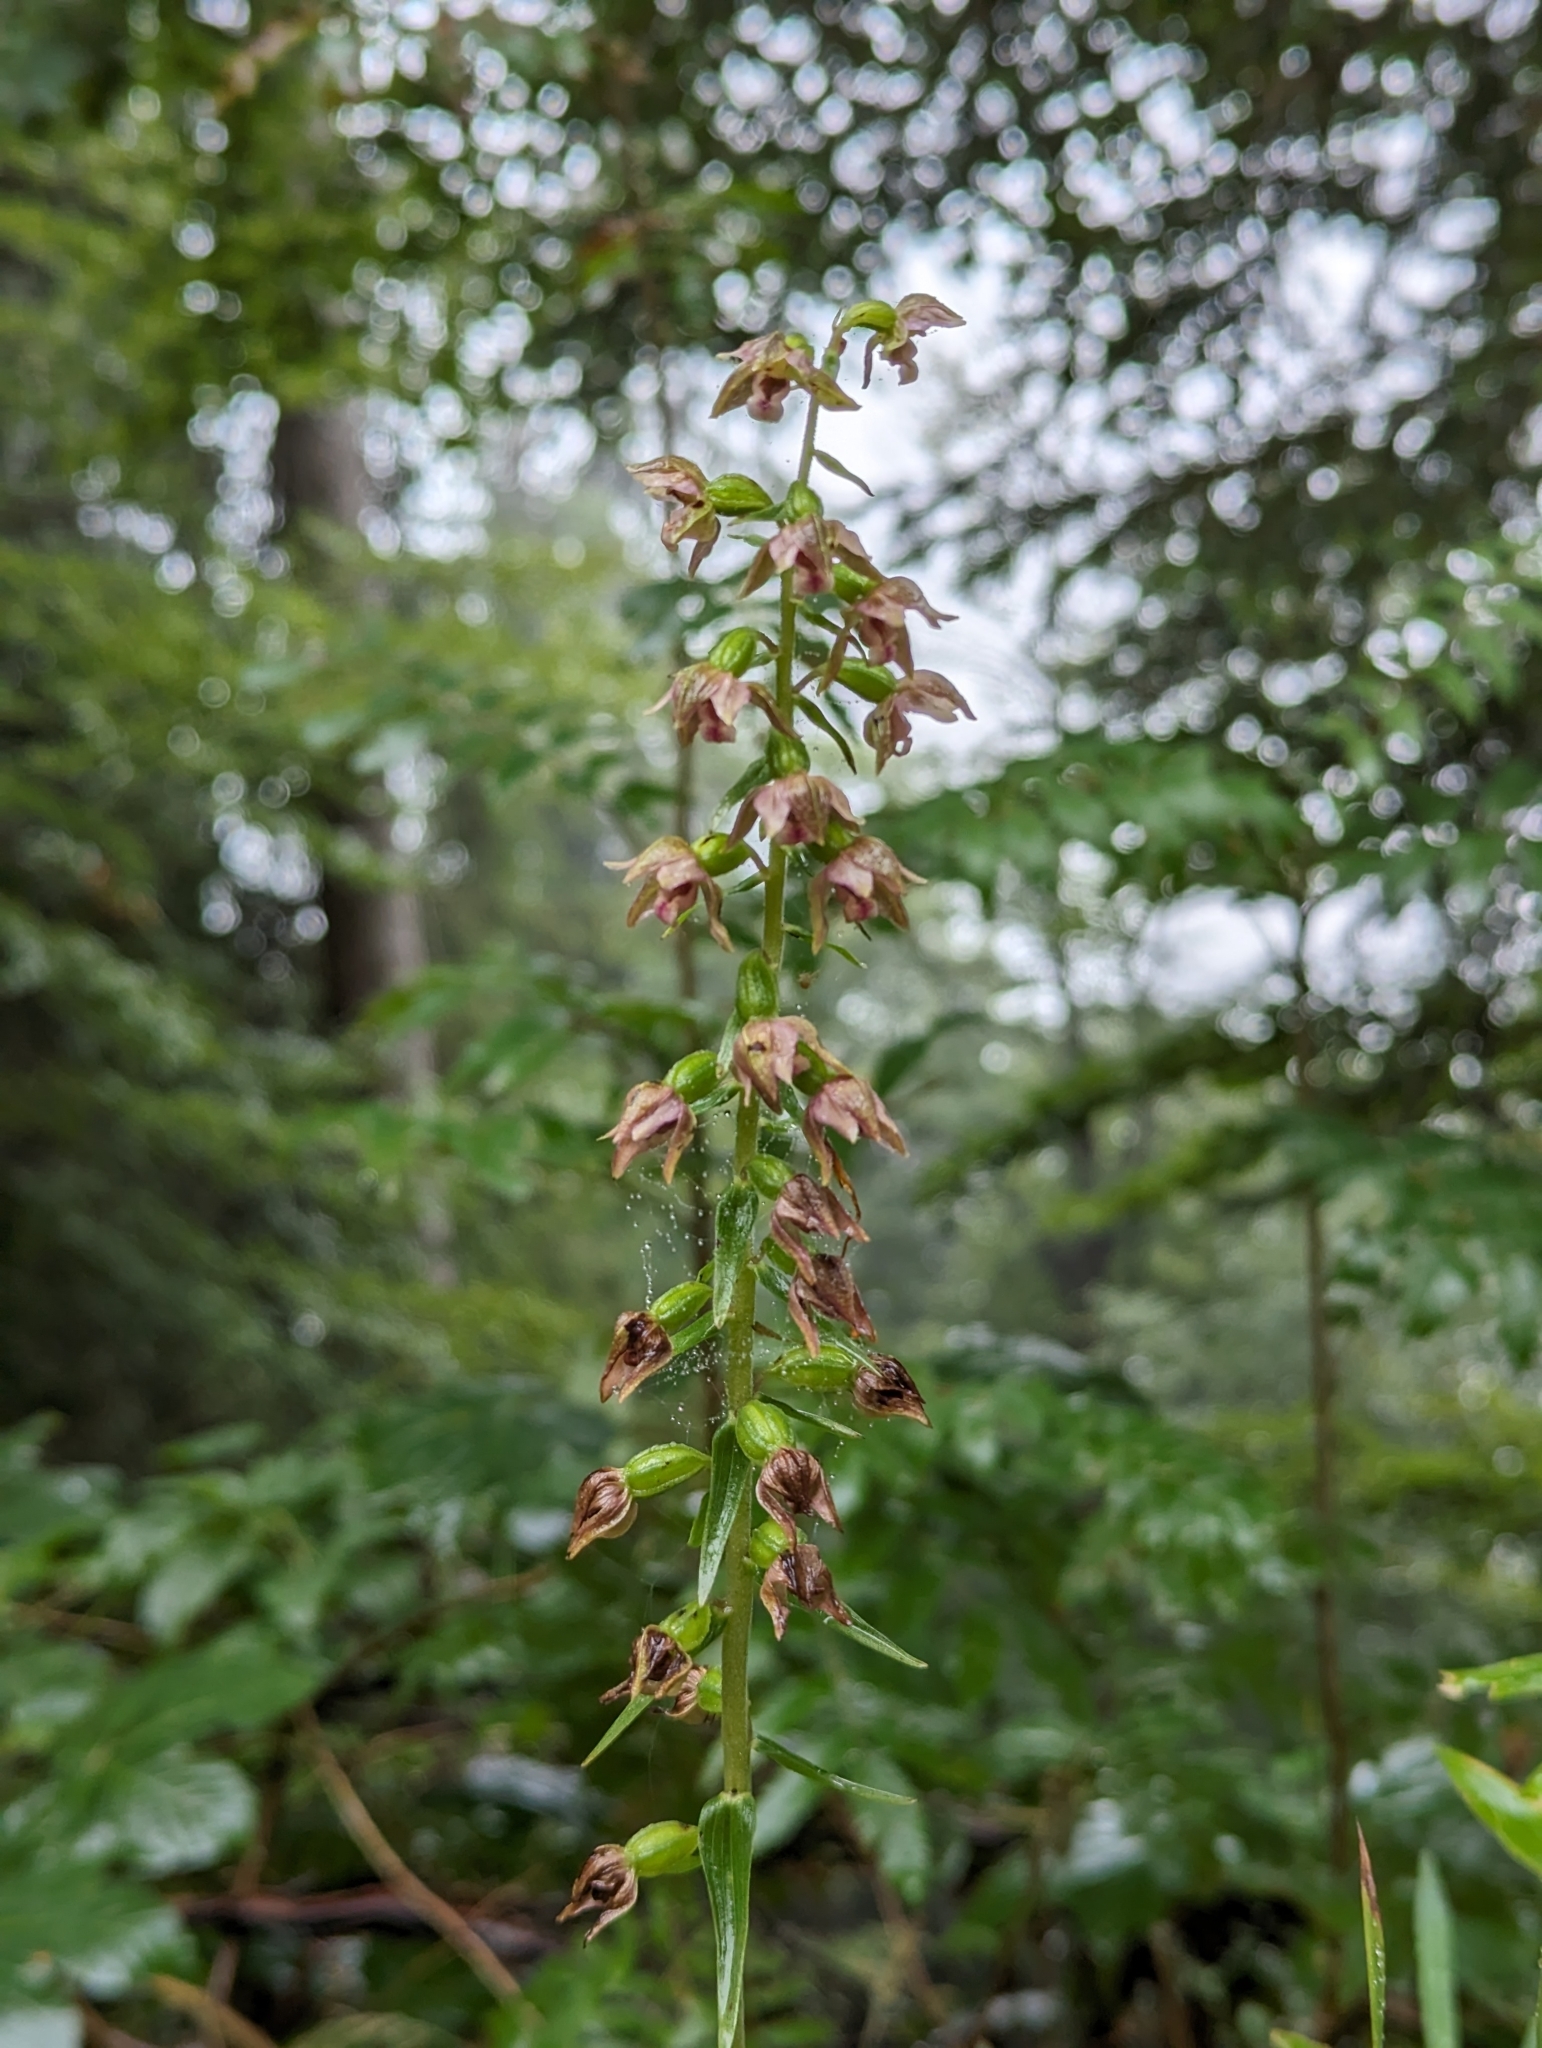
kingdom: Plantae
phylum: Tracheophyta
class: Liliopsida
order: Asparagales
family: Orchidaceae
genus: Epipactis
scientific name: Epipactis helleborine
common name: Broad-leaved helleborine
